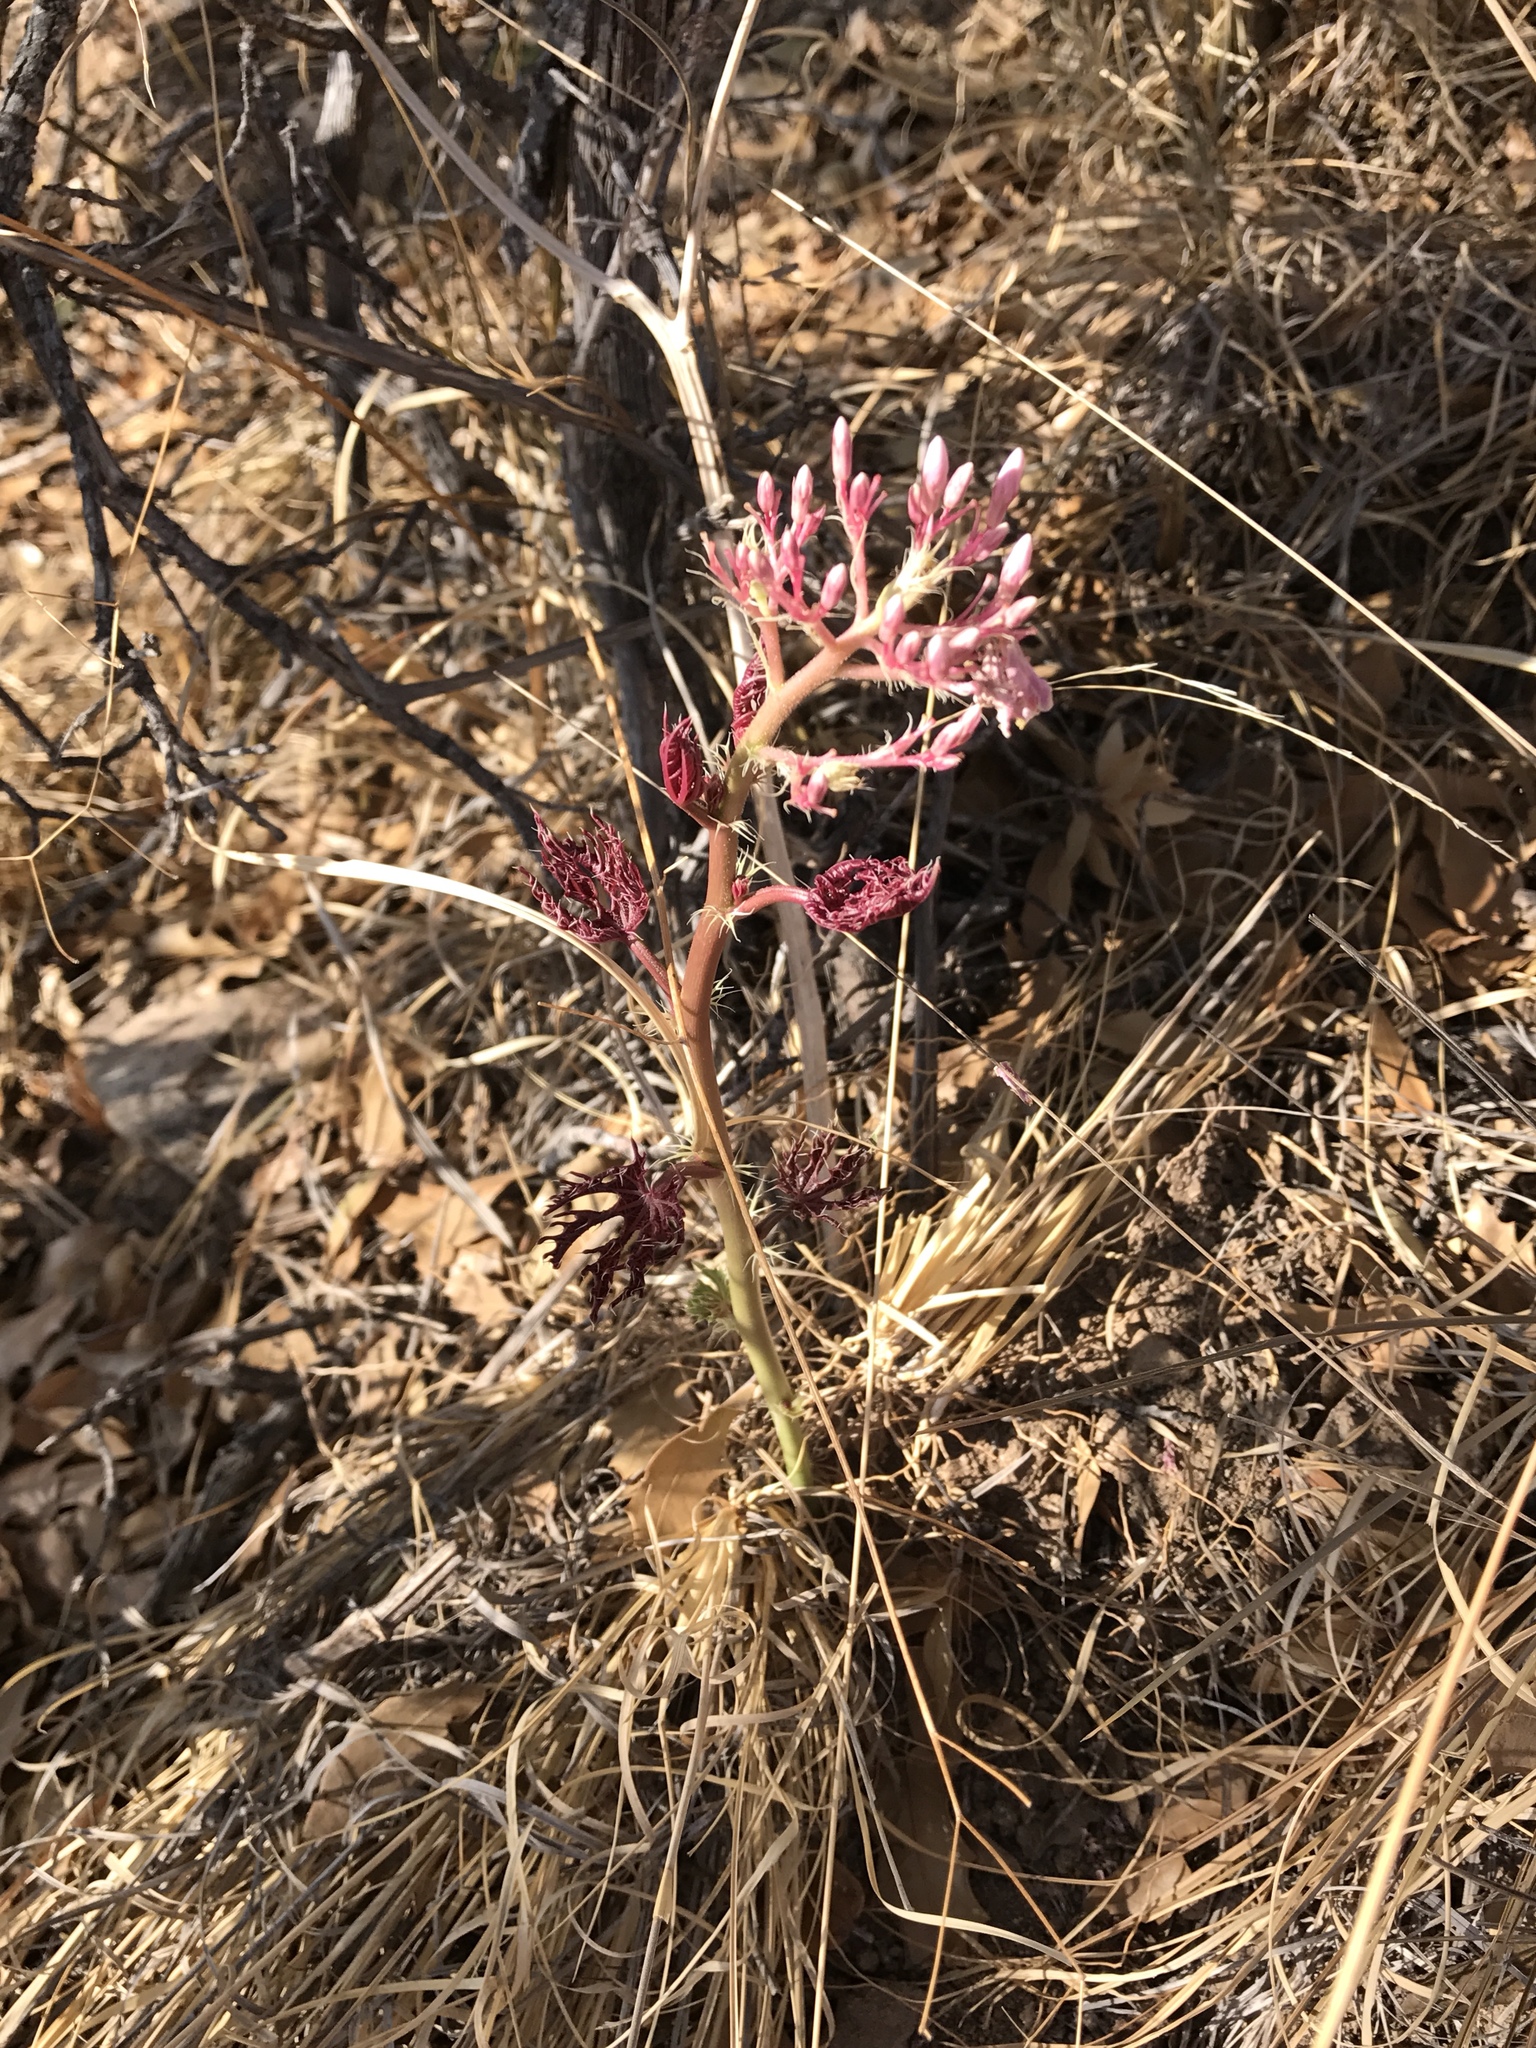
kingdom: Plantae
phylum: Tracheophyta
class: Magnoliopsida
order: Malpighiales
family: Euphorbiaceae
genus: Jatropha
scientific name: Jatropha macrorhiza
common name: Ragged nettlespurge
